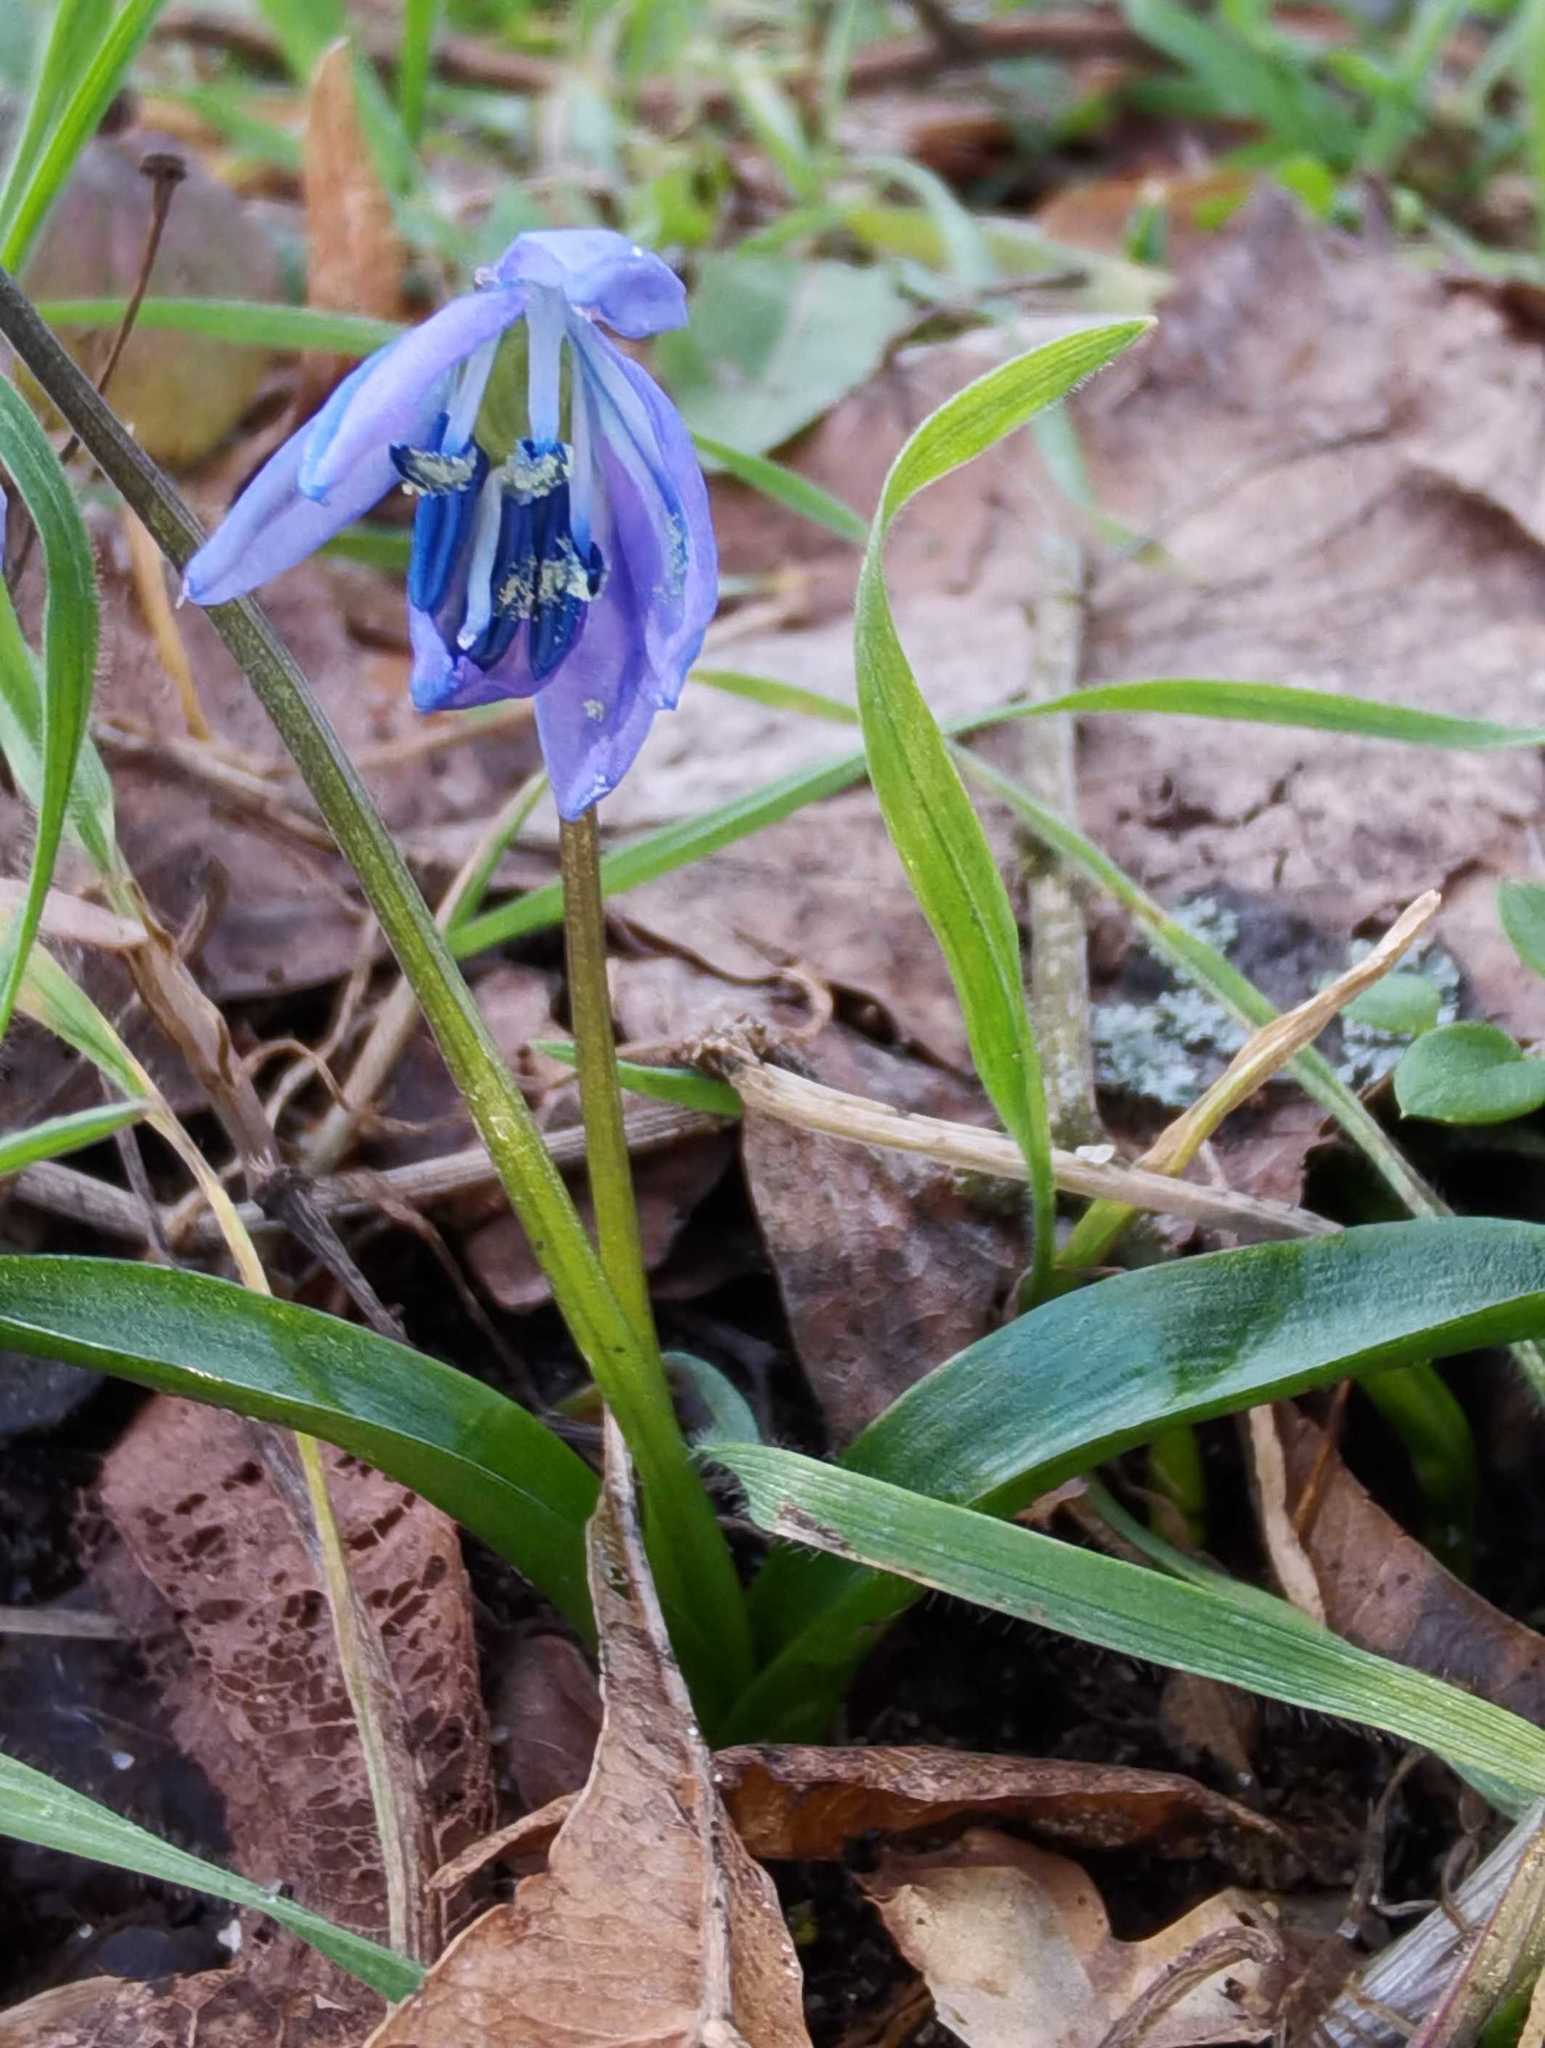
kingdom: Plantae
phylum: Tracheophyta
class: Liliopsida
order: Asparagales
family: Asparagaceae
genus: Scilla
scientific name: Scilla siberica
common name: Siberian squill
